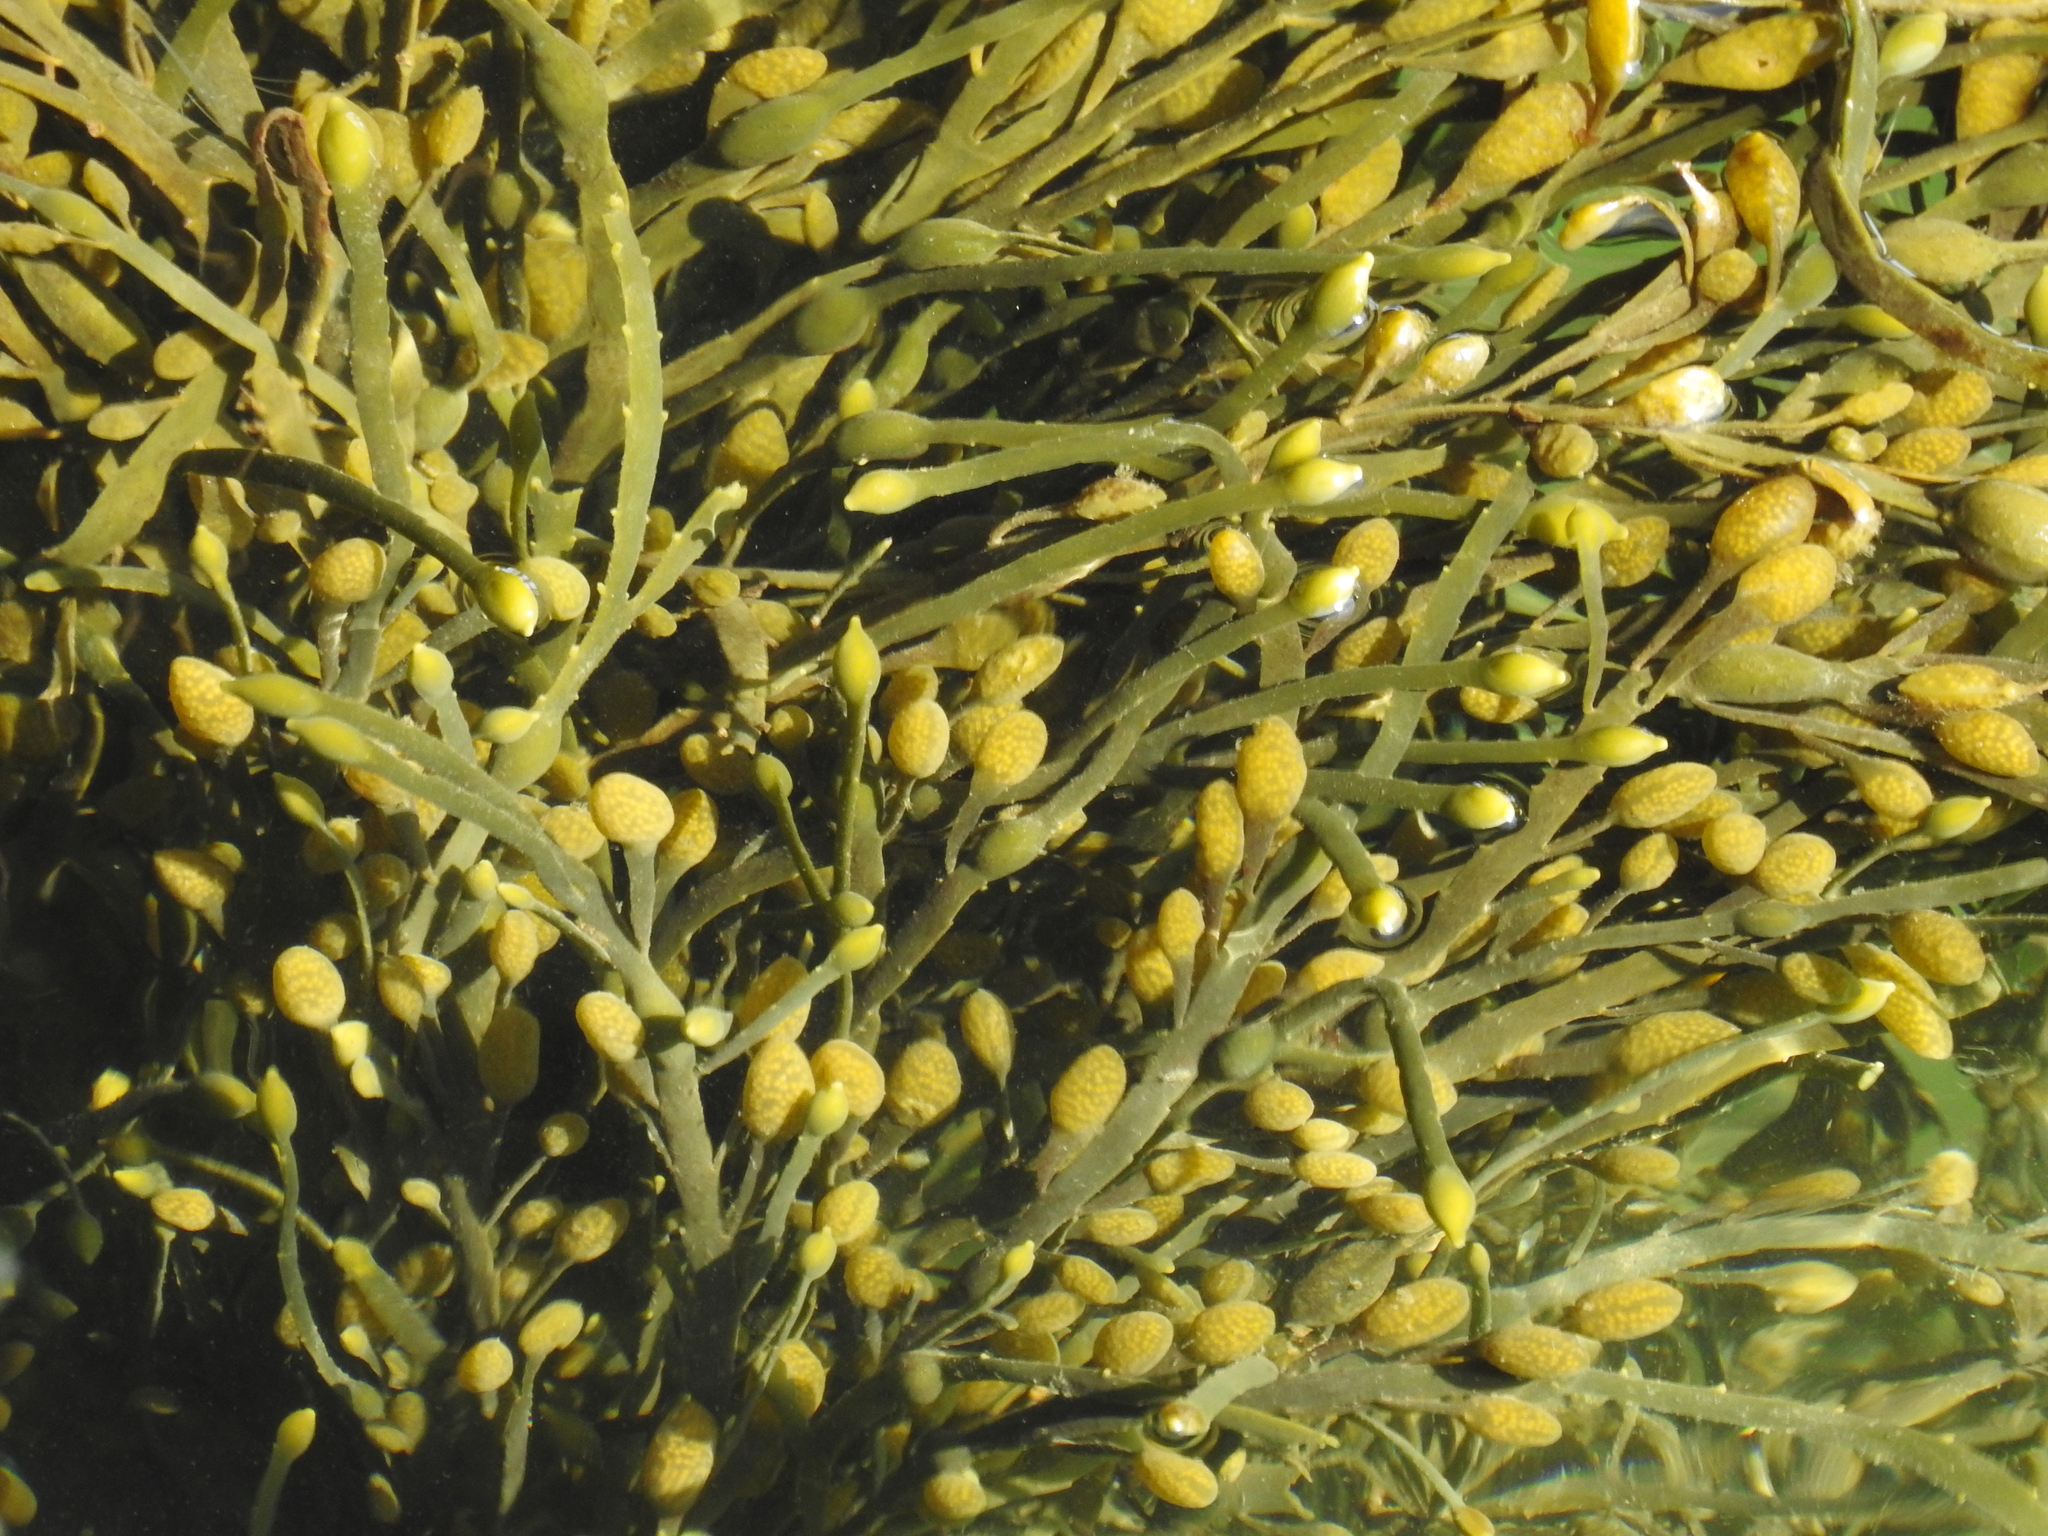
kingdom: Chromista
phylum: Ochrophyta
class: Phaeophyceae
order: Fucales
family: Fucaceae
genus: Ascophyllum
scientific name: Ascophyllum nodosum
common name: Knotted wrack
